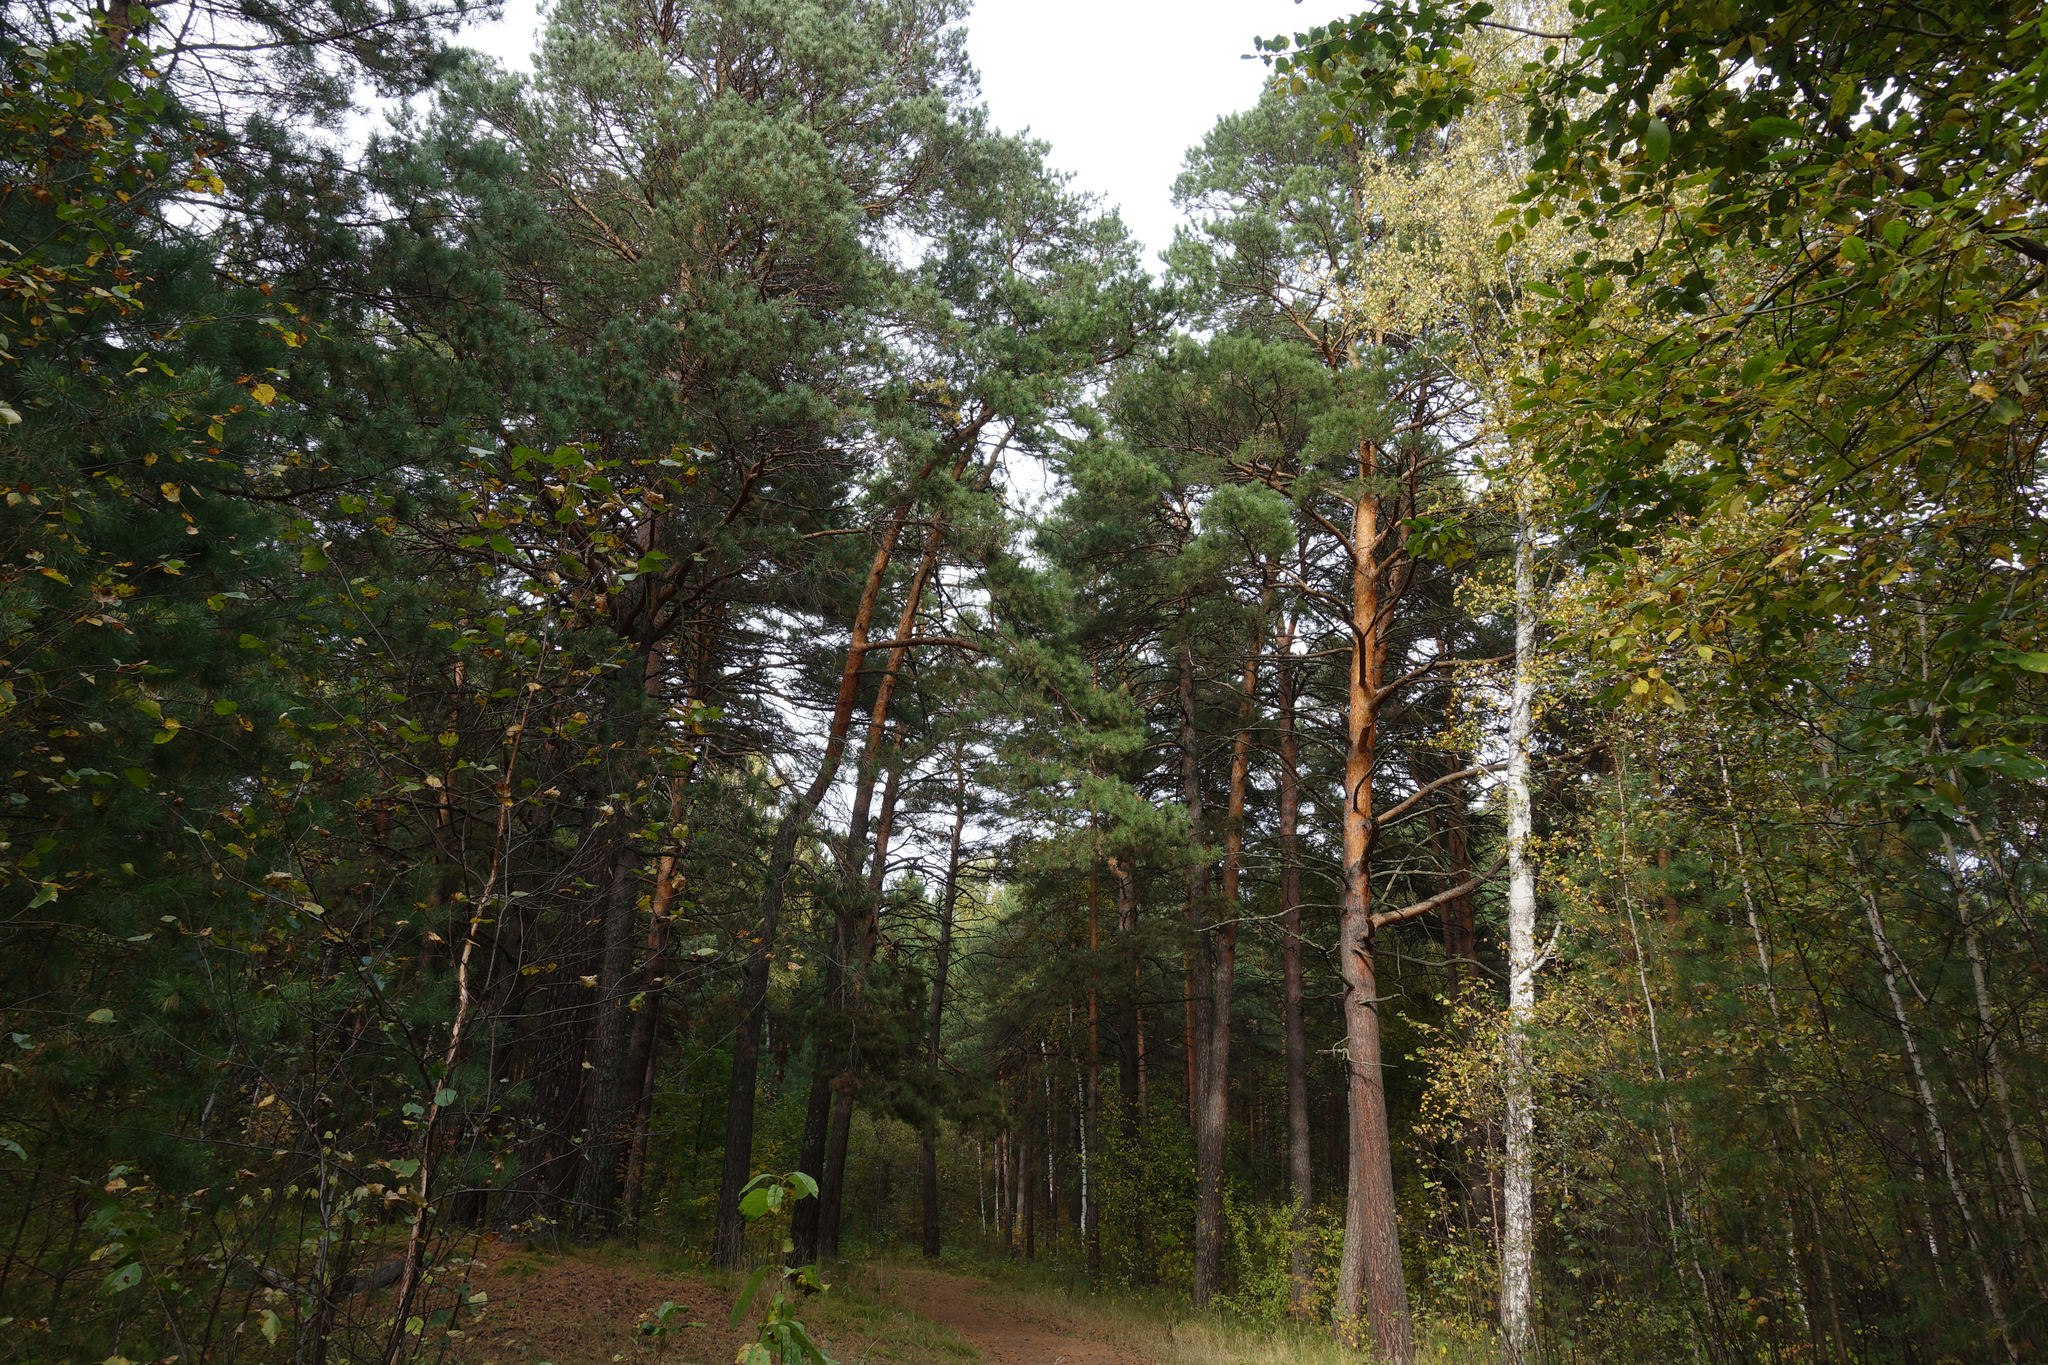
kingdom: Plantae
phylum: Tracheophyta
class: Pinopsida
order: Pinales
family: Pinaceae
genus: Pinus
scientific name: Pinus sylvestris
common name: Scots pine
